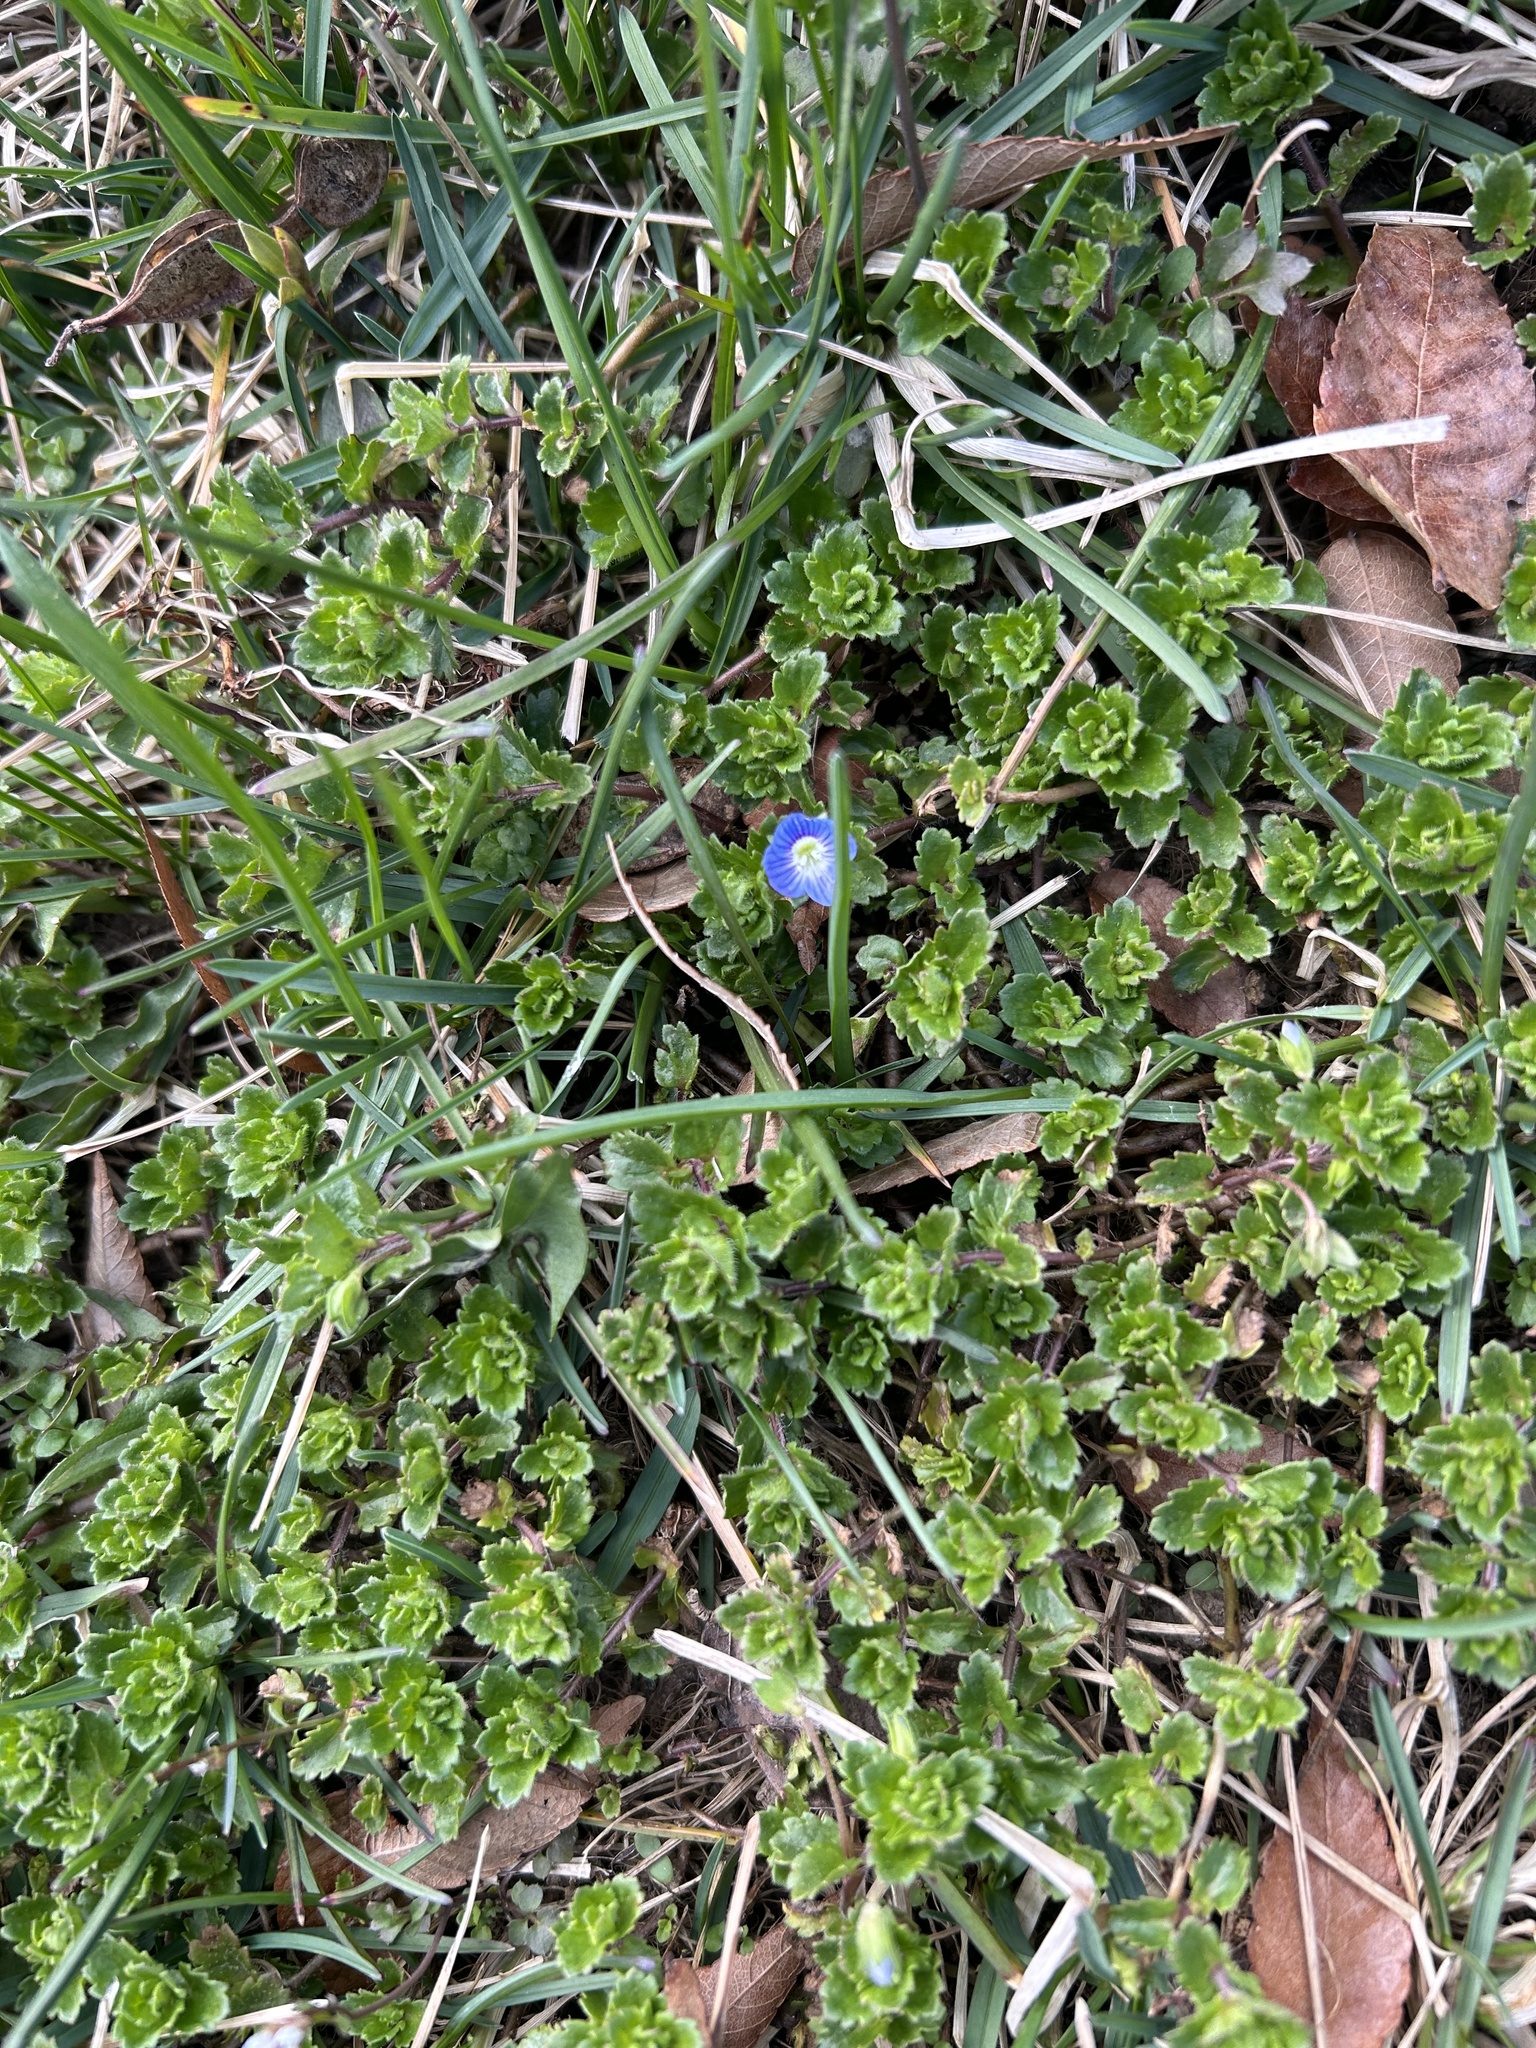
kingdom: Plantae
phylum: Tracheophyta
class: Magnoliopsida
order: Lamiales
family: Plantaginaceae
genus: Veronica
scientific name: Veronica persica
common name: Common field-speedwell
